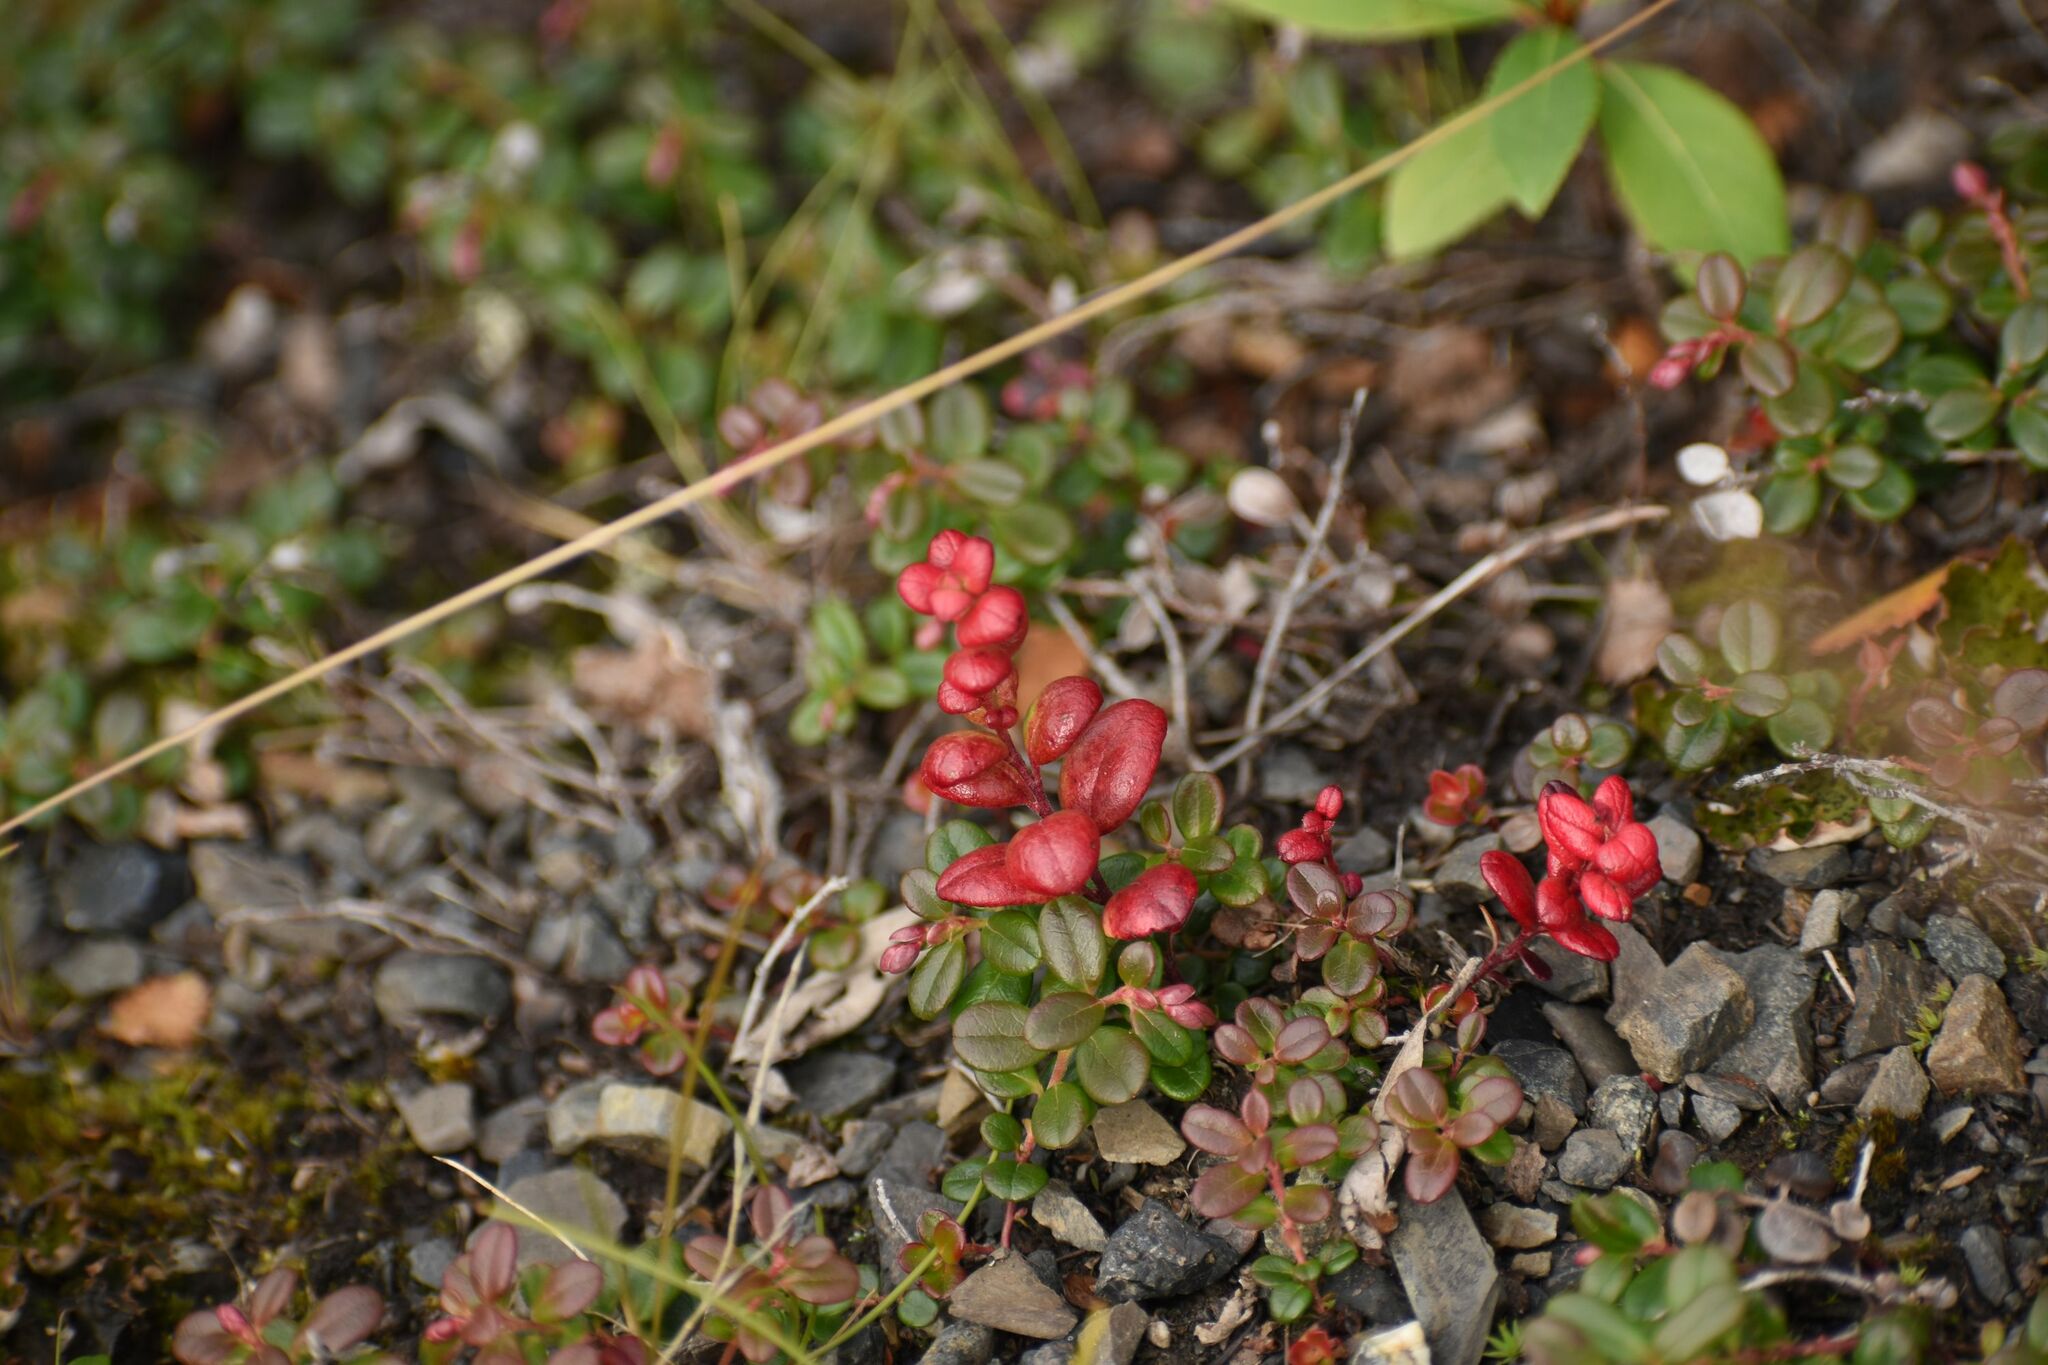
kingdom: Fungi
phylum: Basidiomycota
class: Exobasidiomycetes
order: Exobasidiales
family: Exobasidiaceae
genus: Exobasidium
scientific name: Exobasidium splendidum
